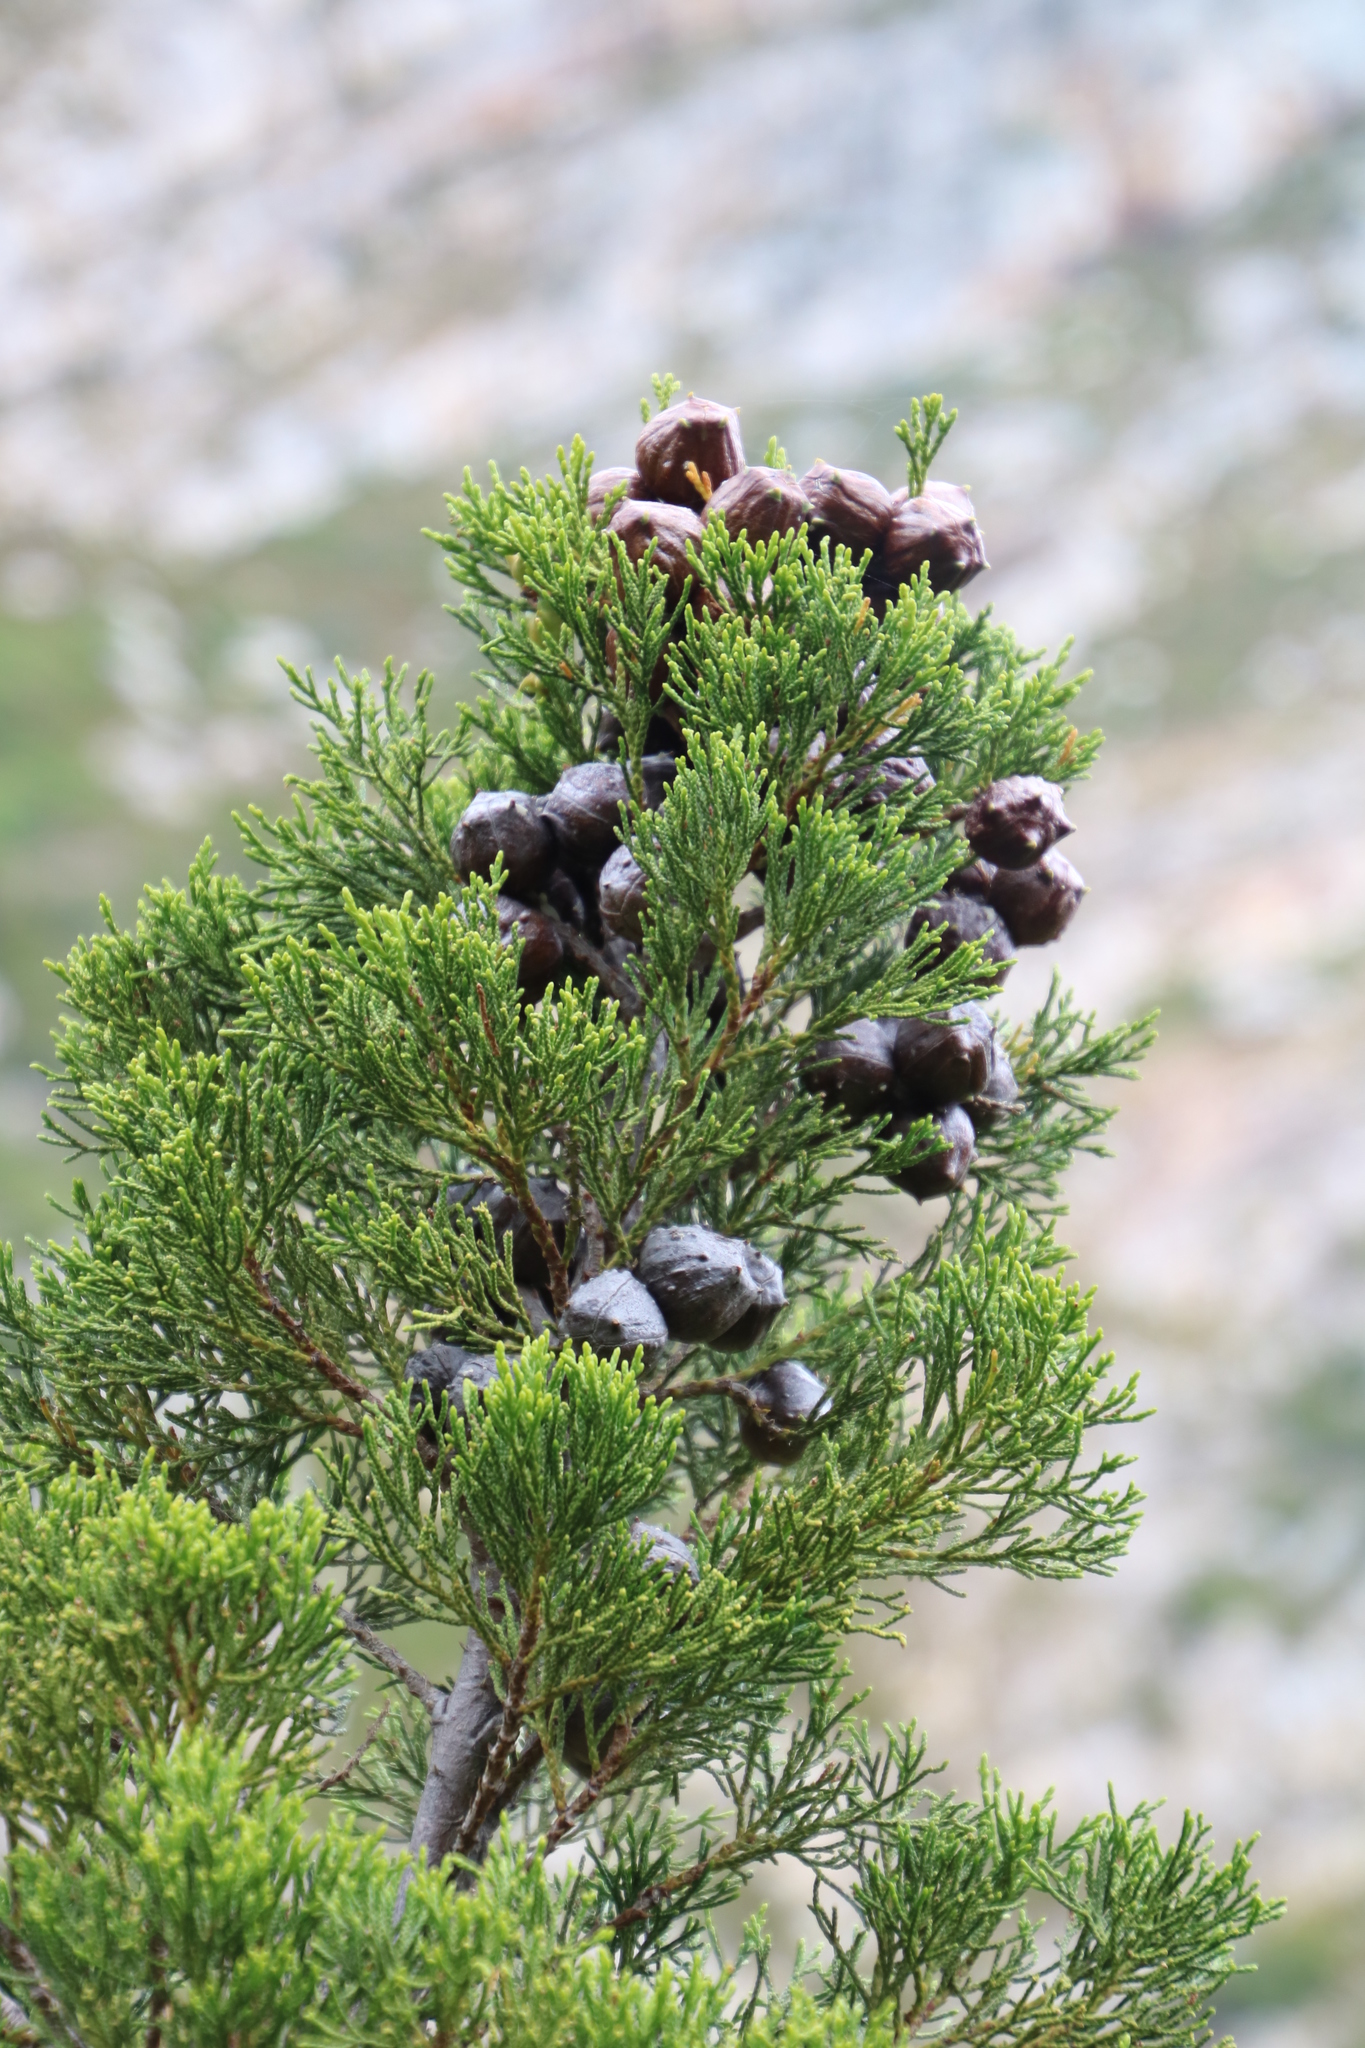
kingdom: Plantae
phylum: Tracheophyta
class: Pinopsida
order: Pinales
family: Cupressaceae
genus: Widdringtonia
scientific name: Widdringtonia nodiflora
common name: Cape cypress
